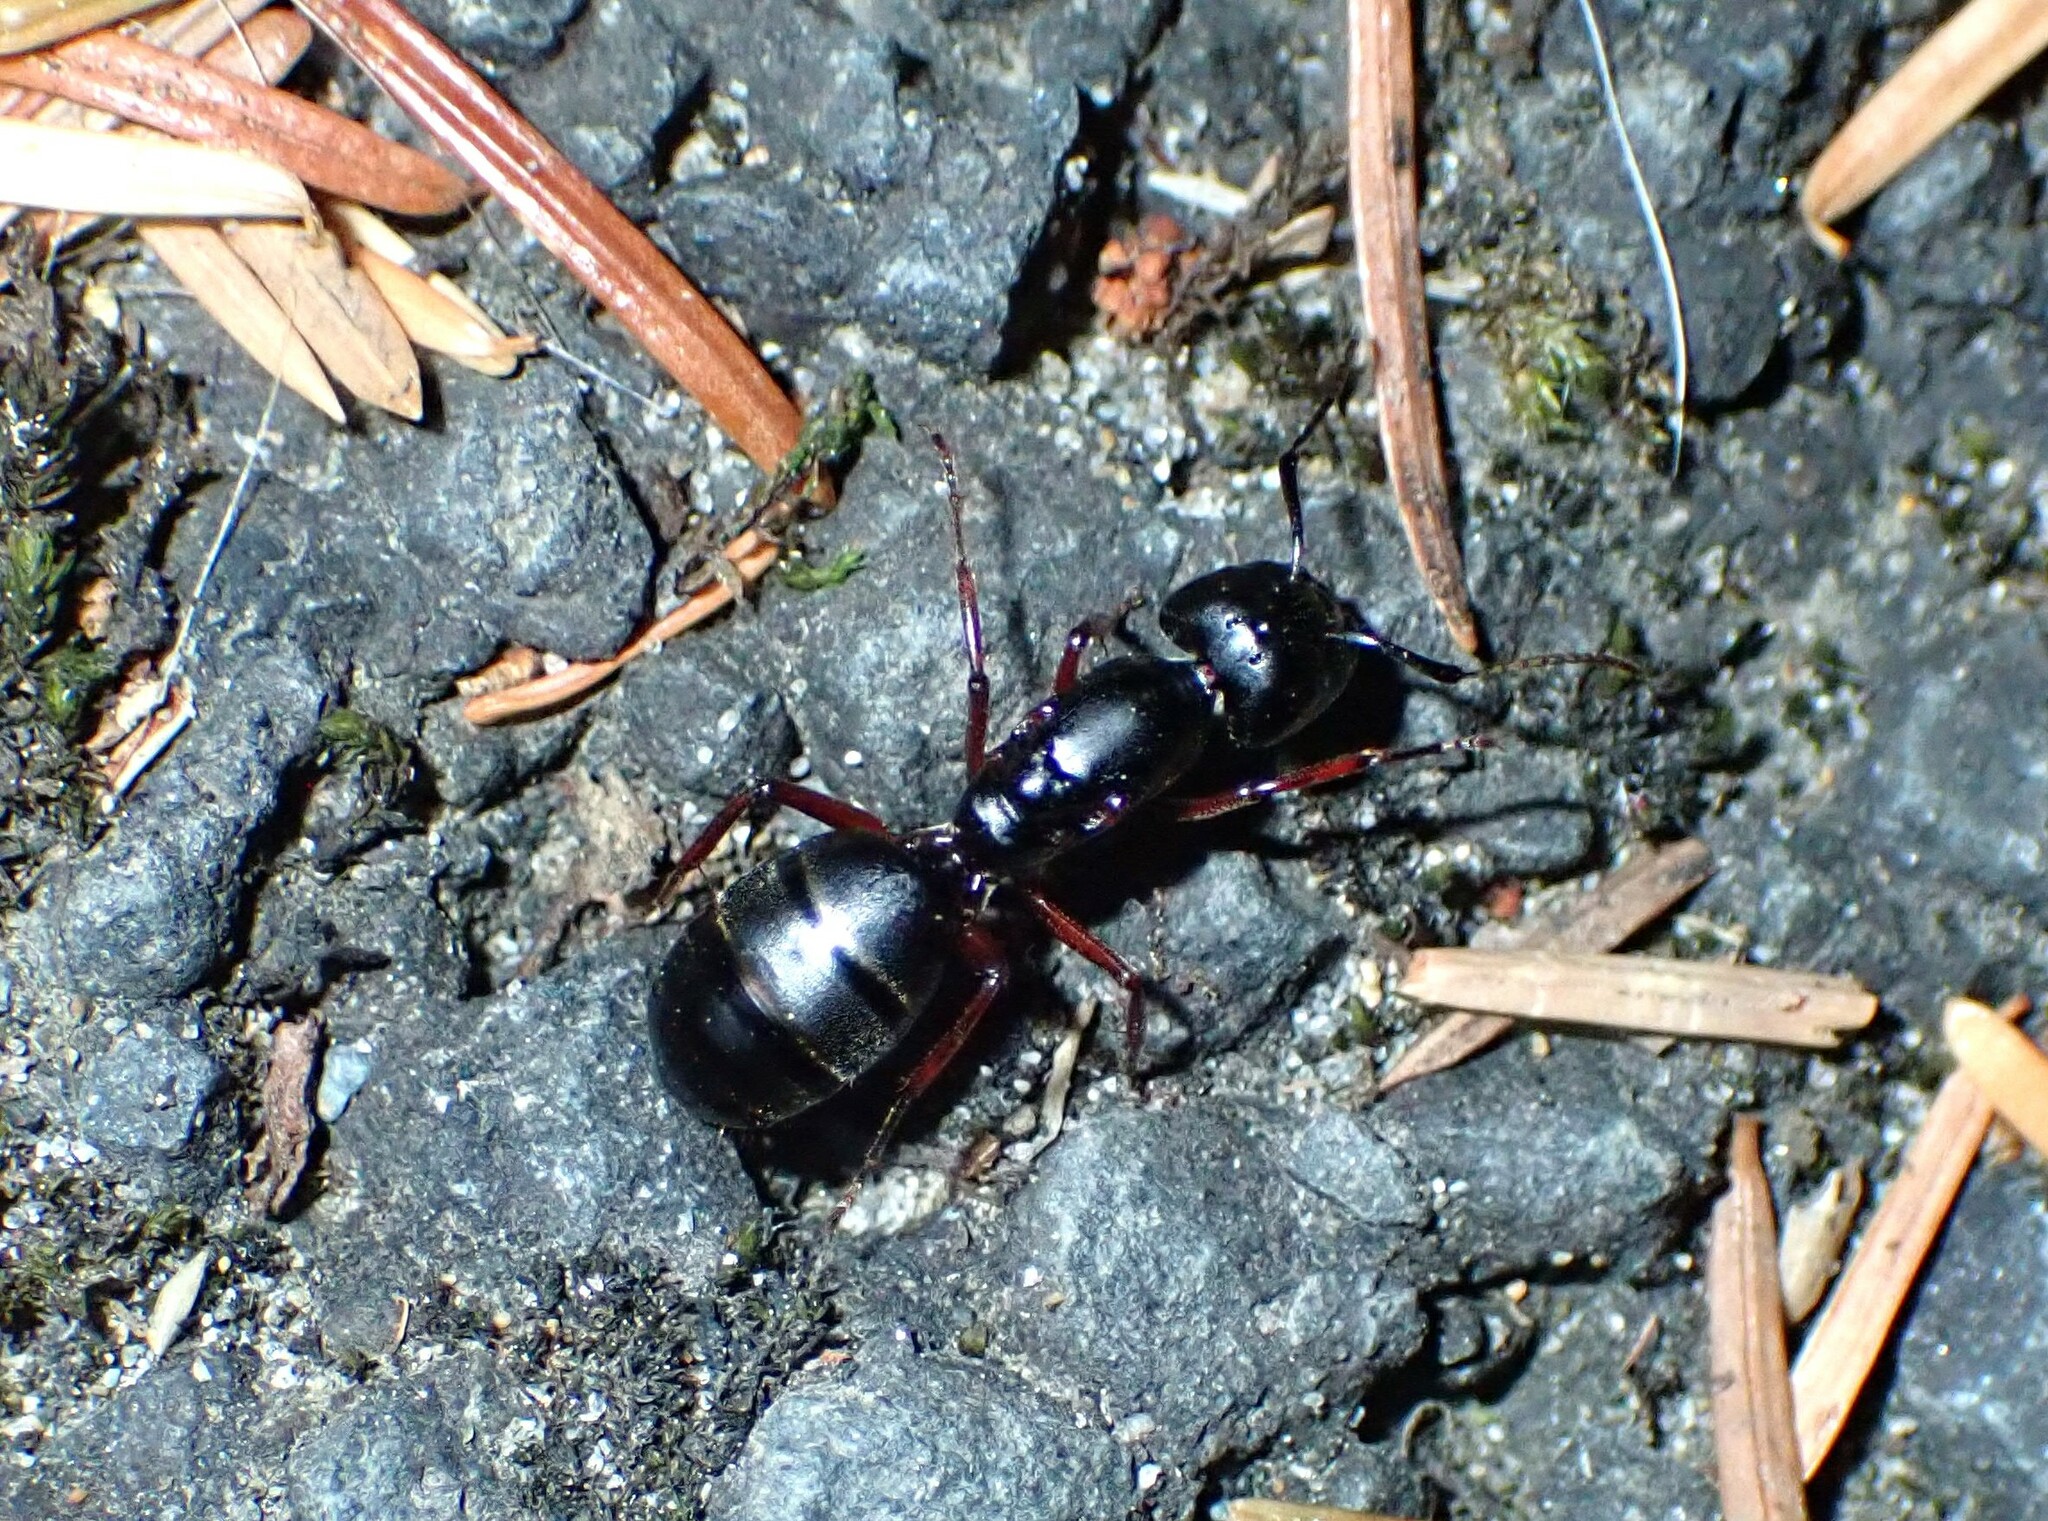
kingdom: Animalia
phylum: Arthropoda
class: Insecta
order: Hymenoptera
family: Formicidae
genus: Camponotus
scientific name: Camponotus modoc
